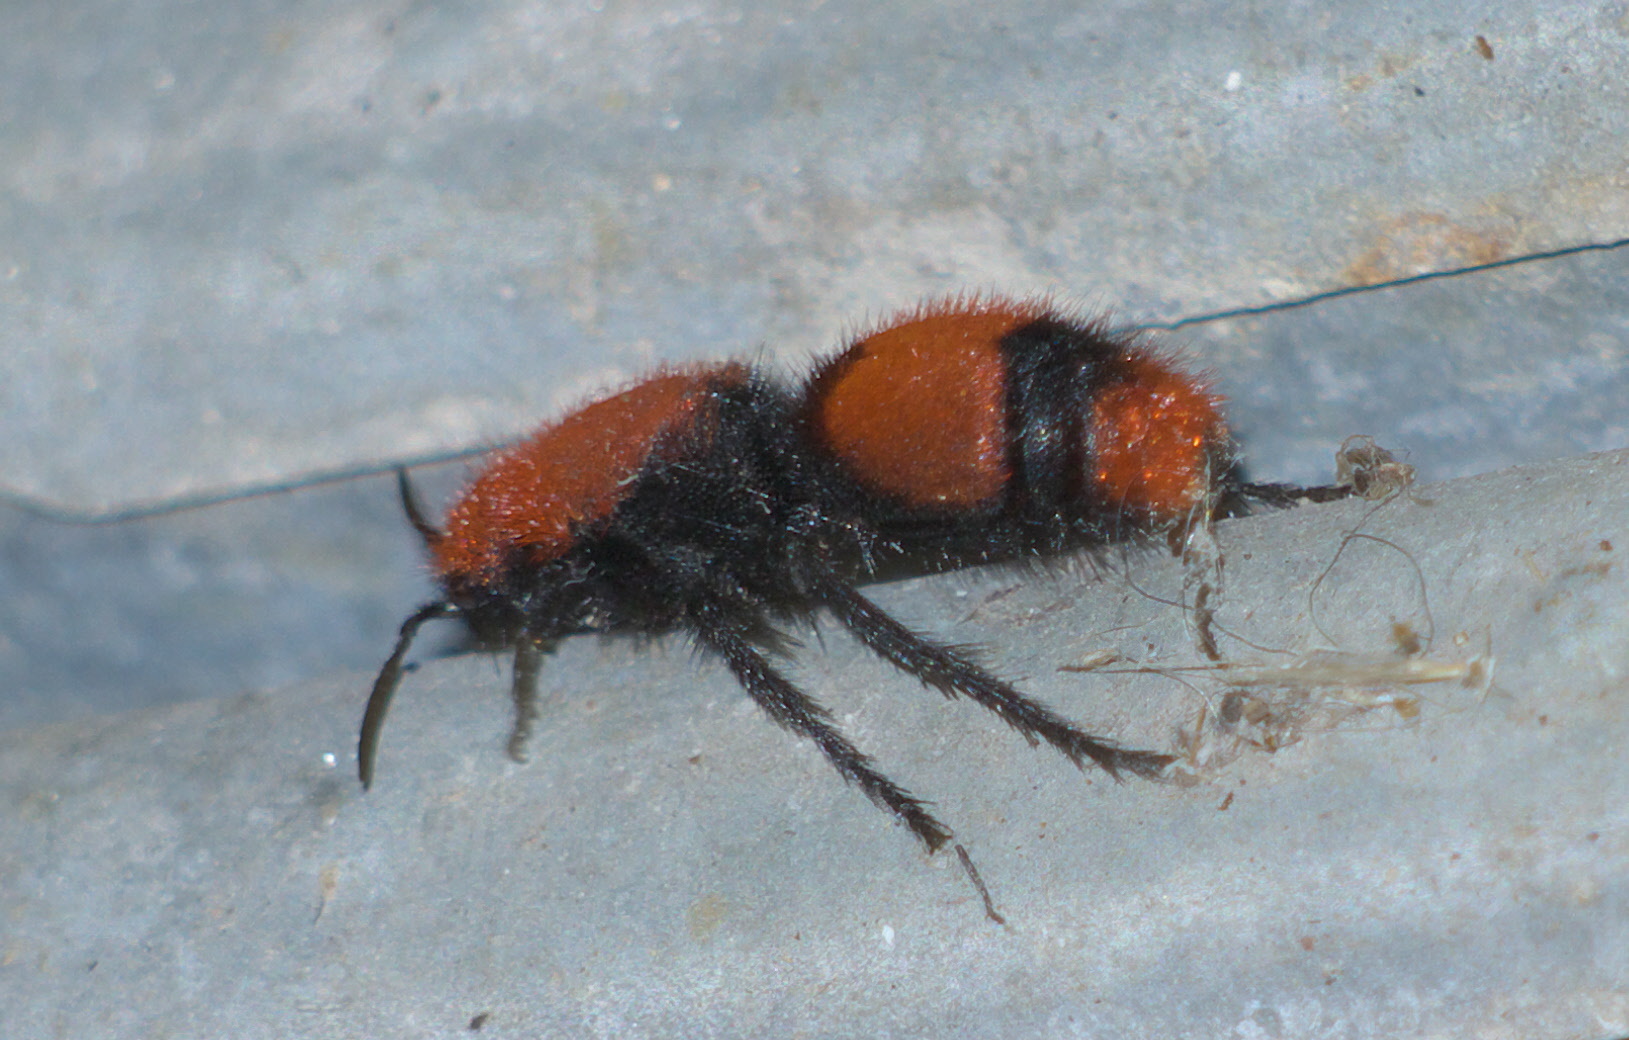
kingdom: Animalia
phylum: Arthropoda
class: Insecta
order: Hymenoptera
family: Mutillidae
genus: Dasymutilla
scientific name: Dasymutilla occidentalis
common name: Common eastern velvet ant
